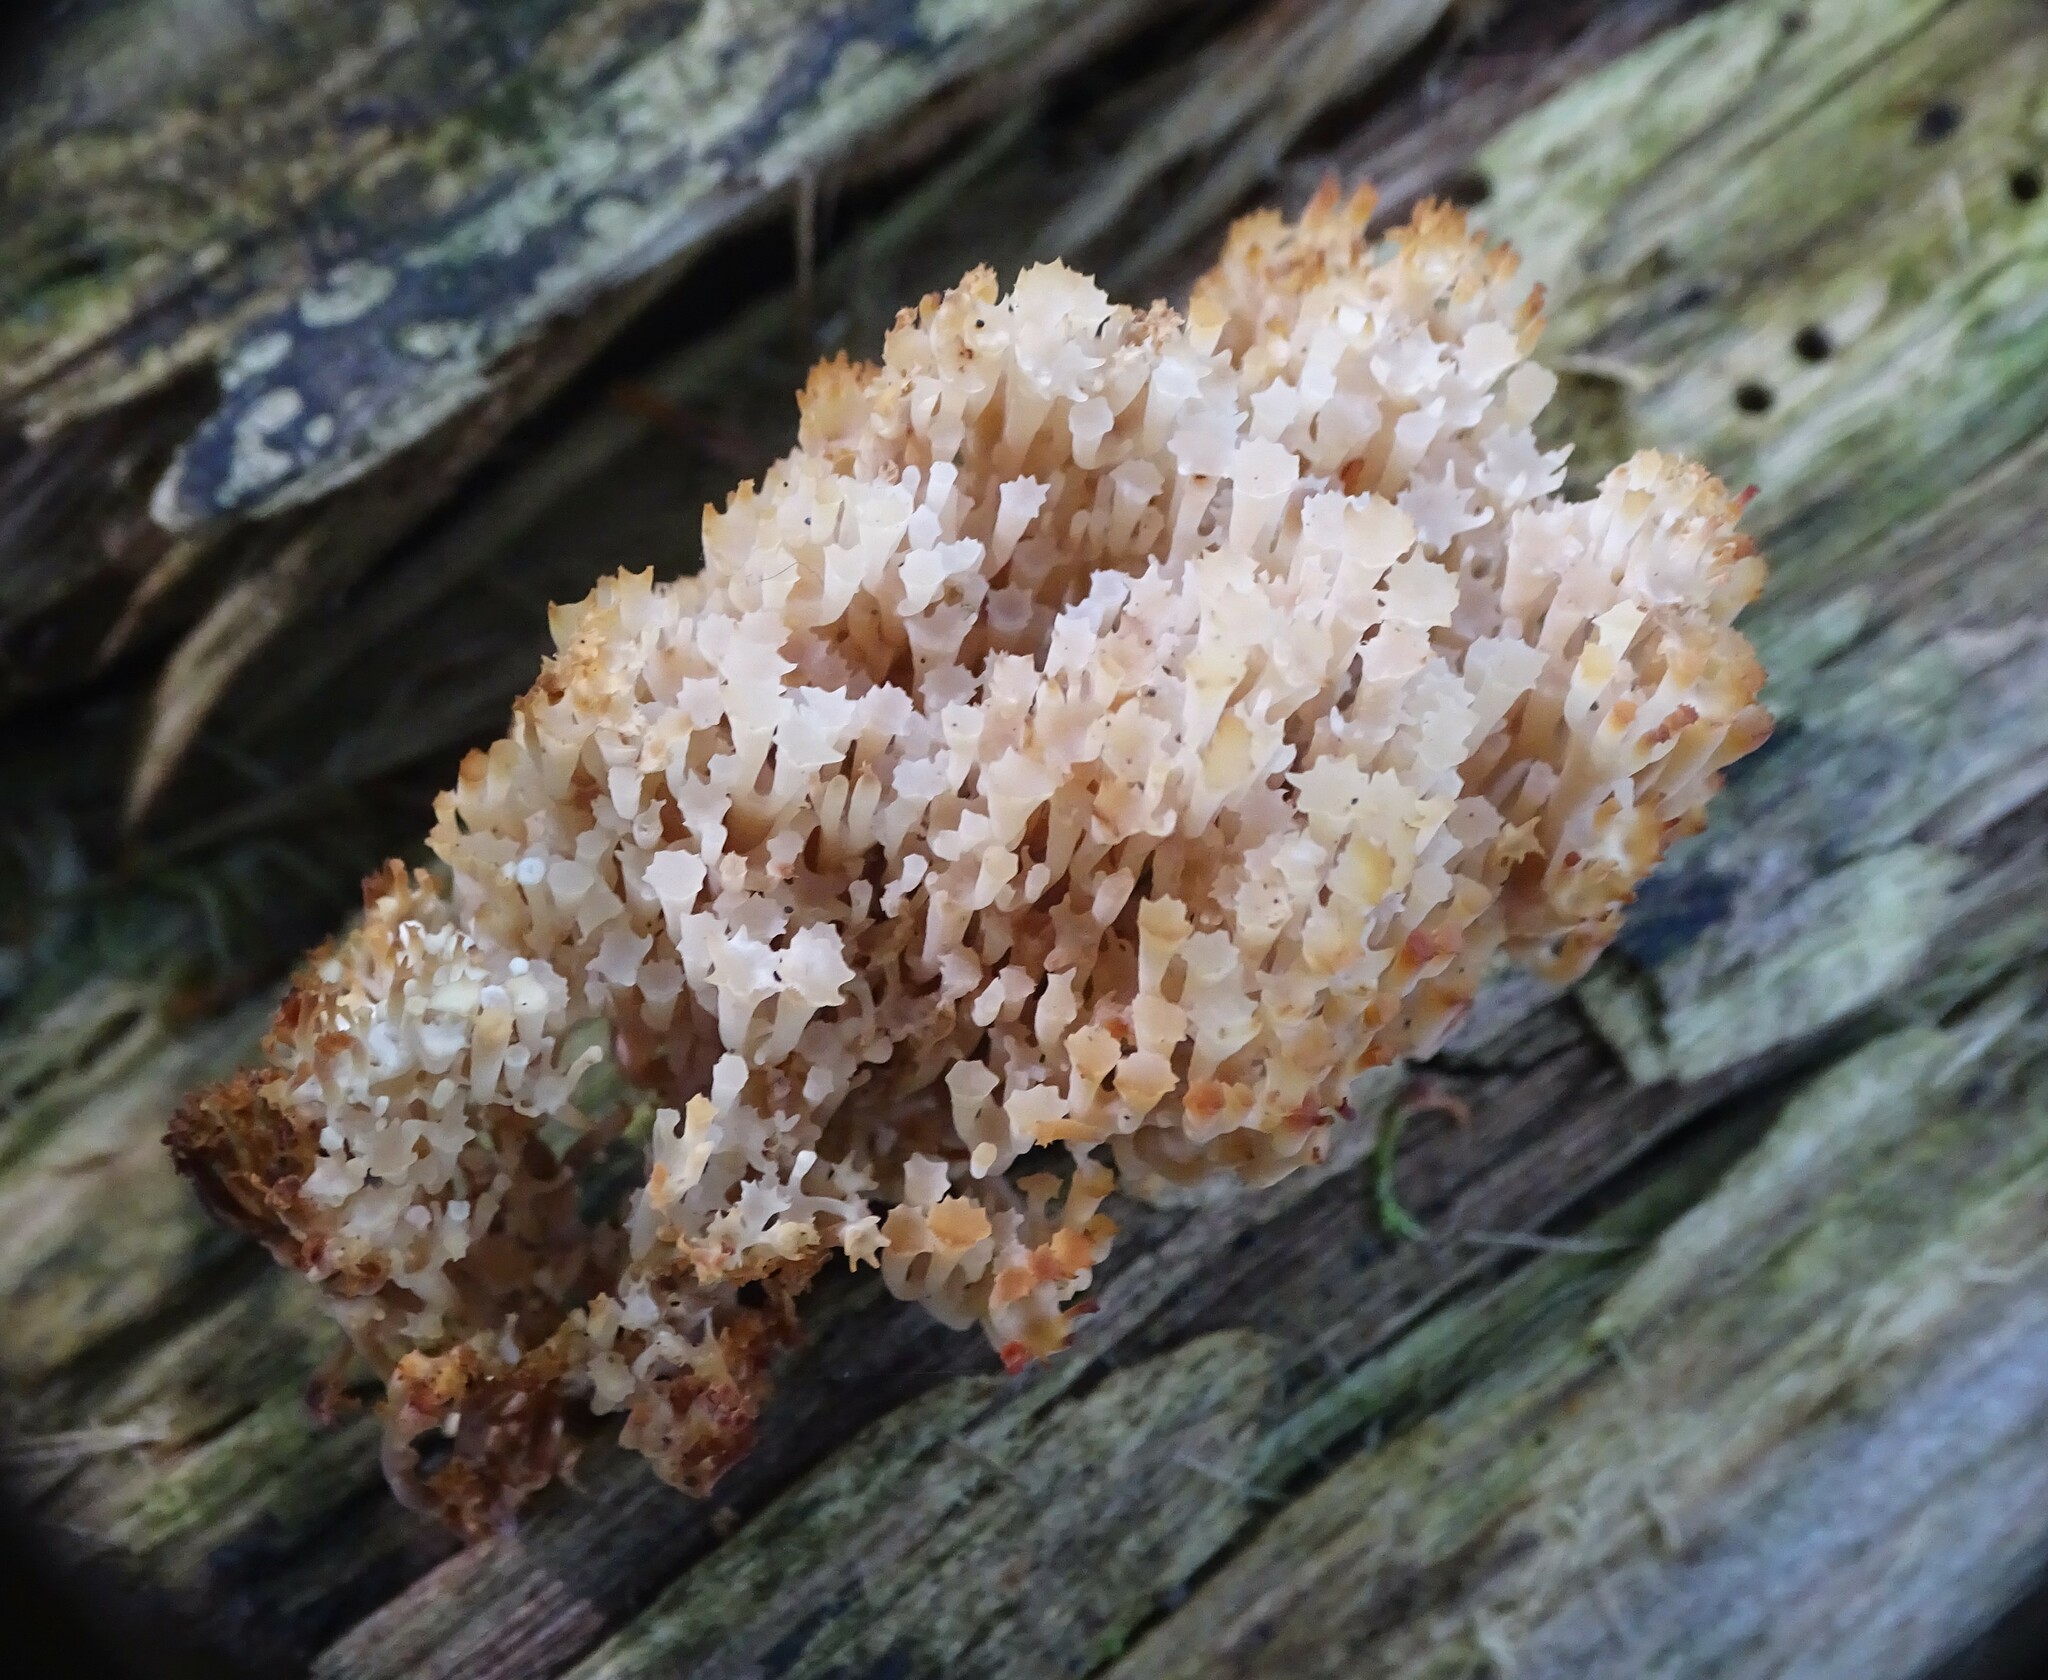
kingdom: Fungi
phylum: Basidiomycota
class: Agaricomycetes
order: Russulales
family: Auriscalpiaceae
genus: Artomyces
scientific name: Artomyces pyxidatus
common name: Crown-tipped coral fungus
